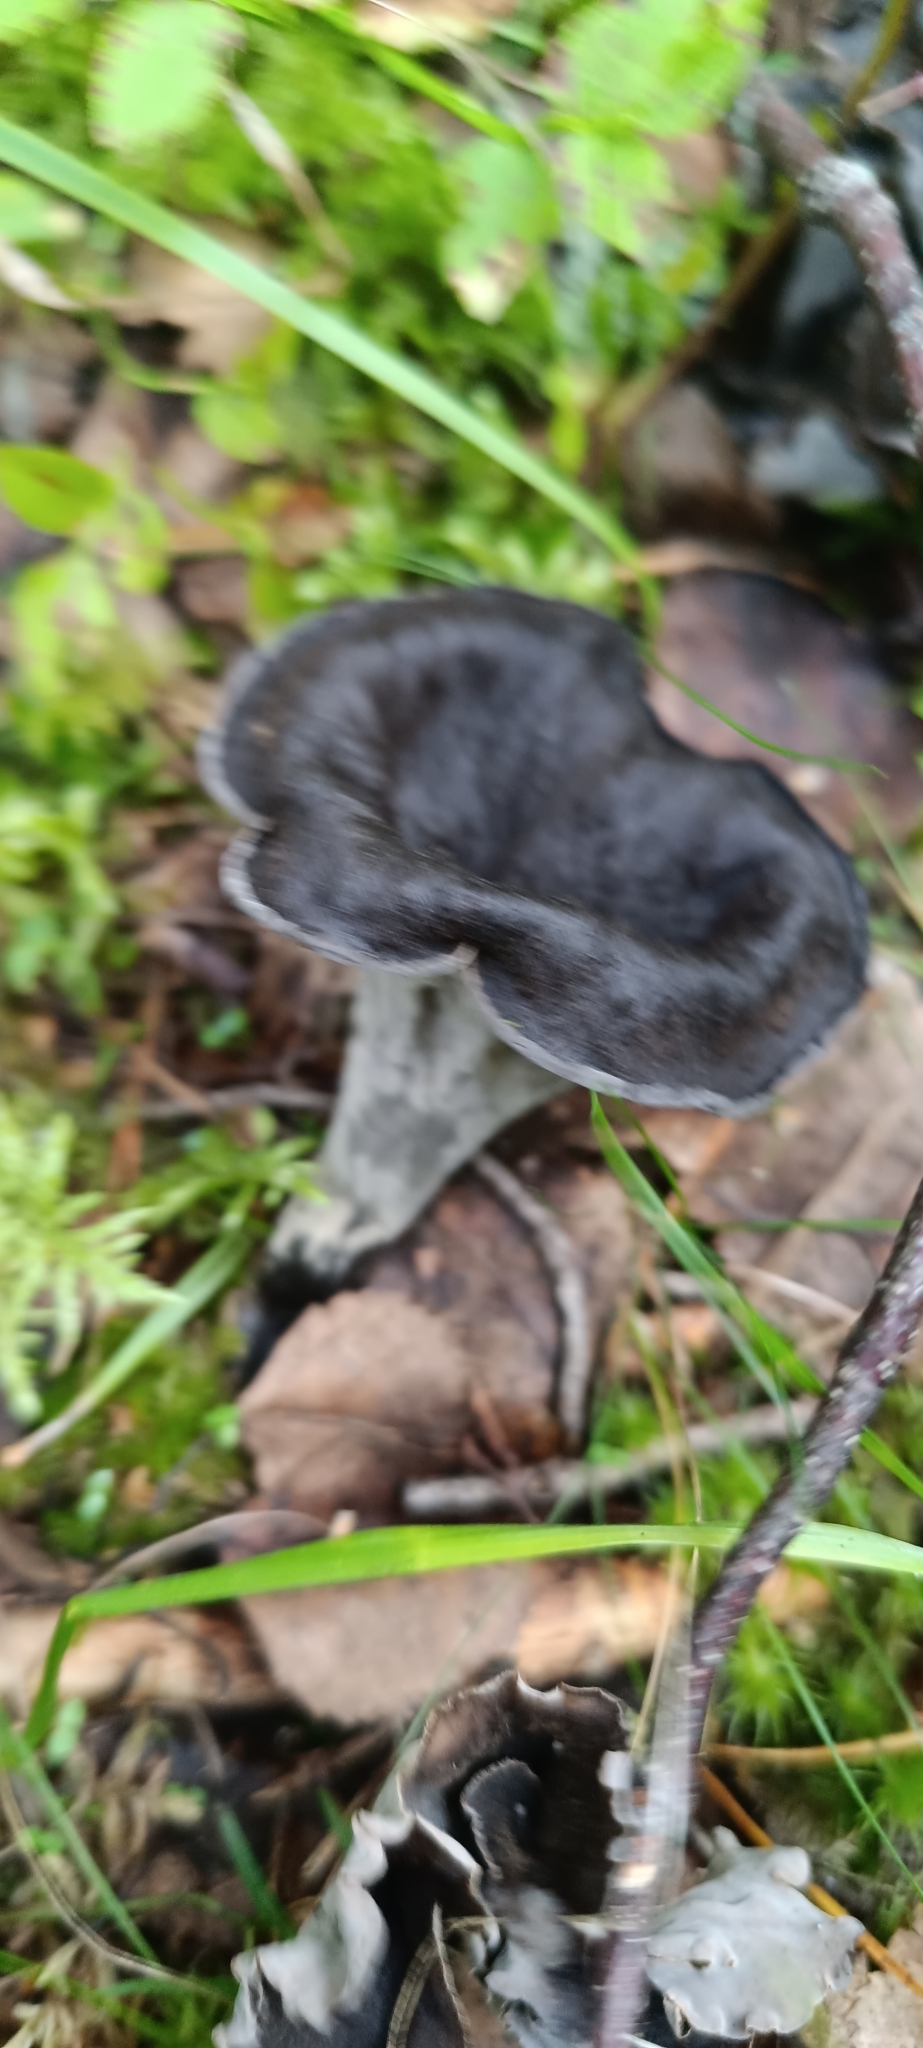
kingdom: Fungi
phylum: Basidiomycota
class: Agaricomycetes
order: Cantharellales
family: Hydnaceae
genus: Craterellus
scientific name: Craterellus cornucopioides
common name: Horn of plenty
